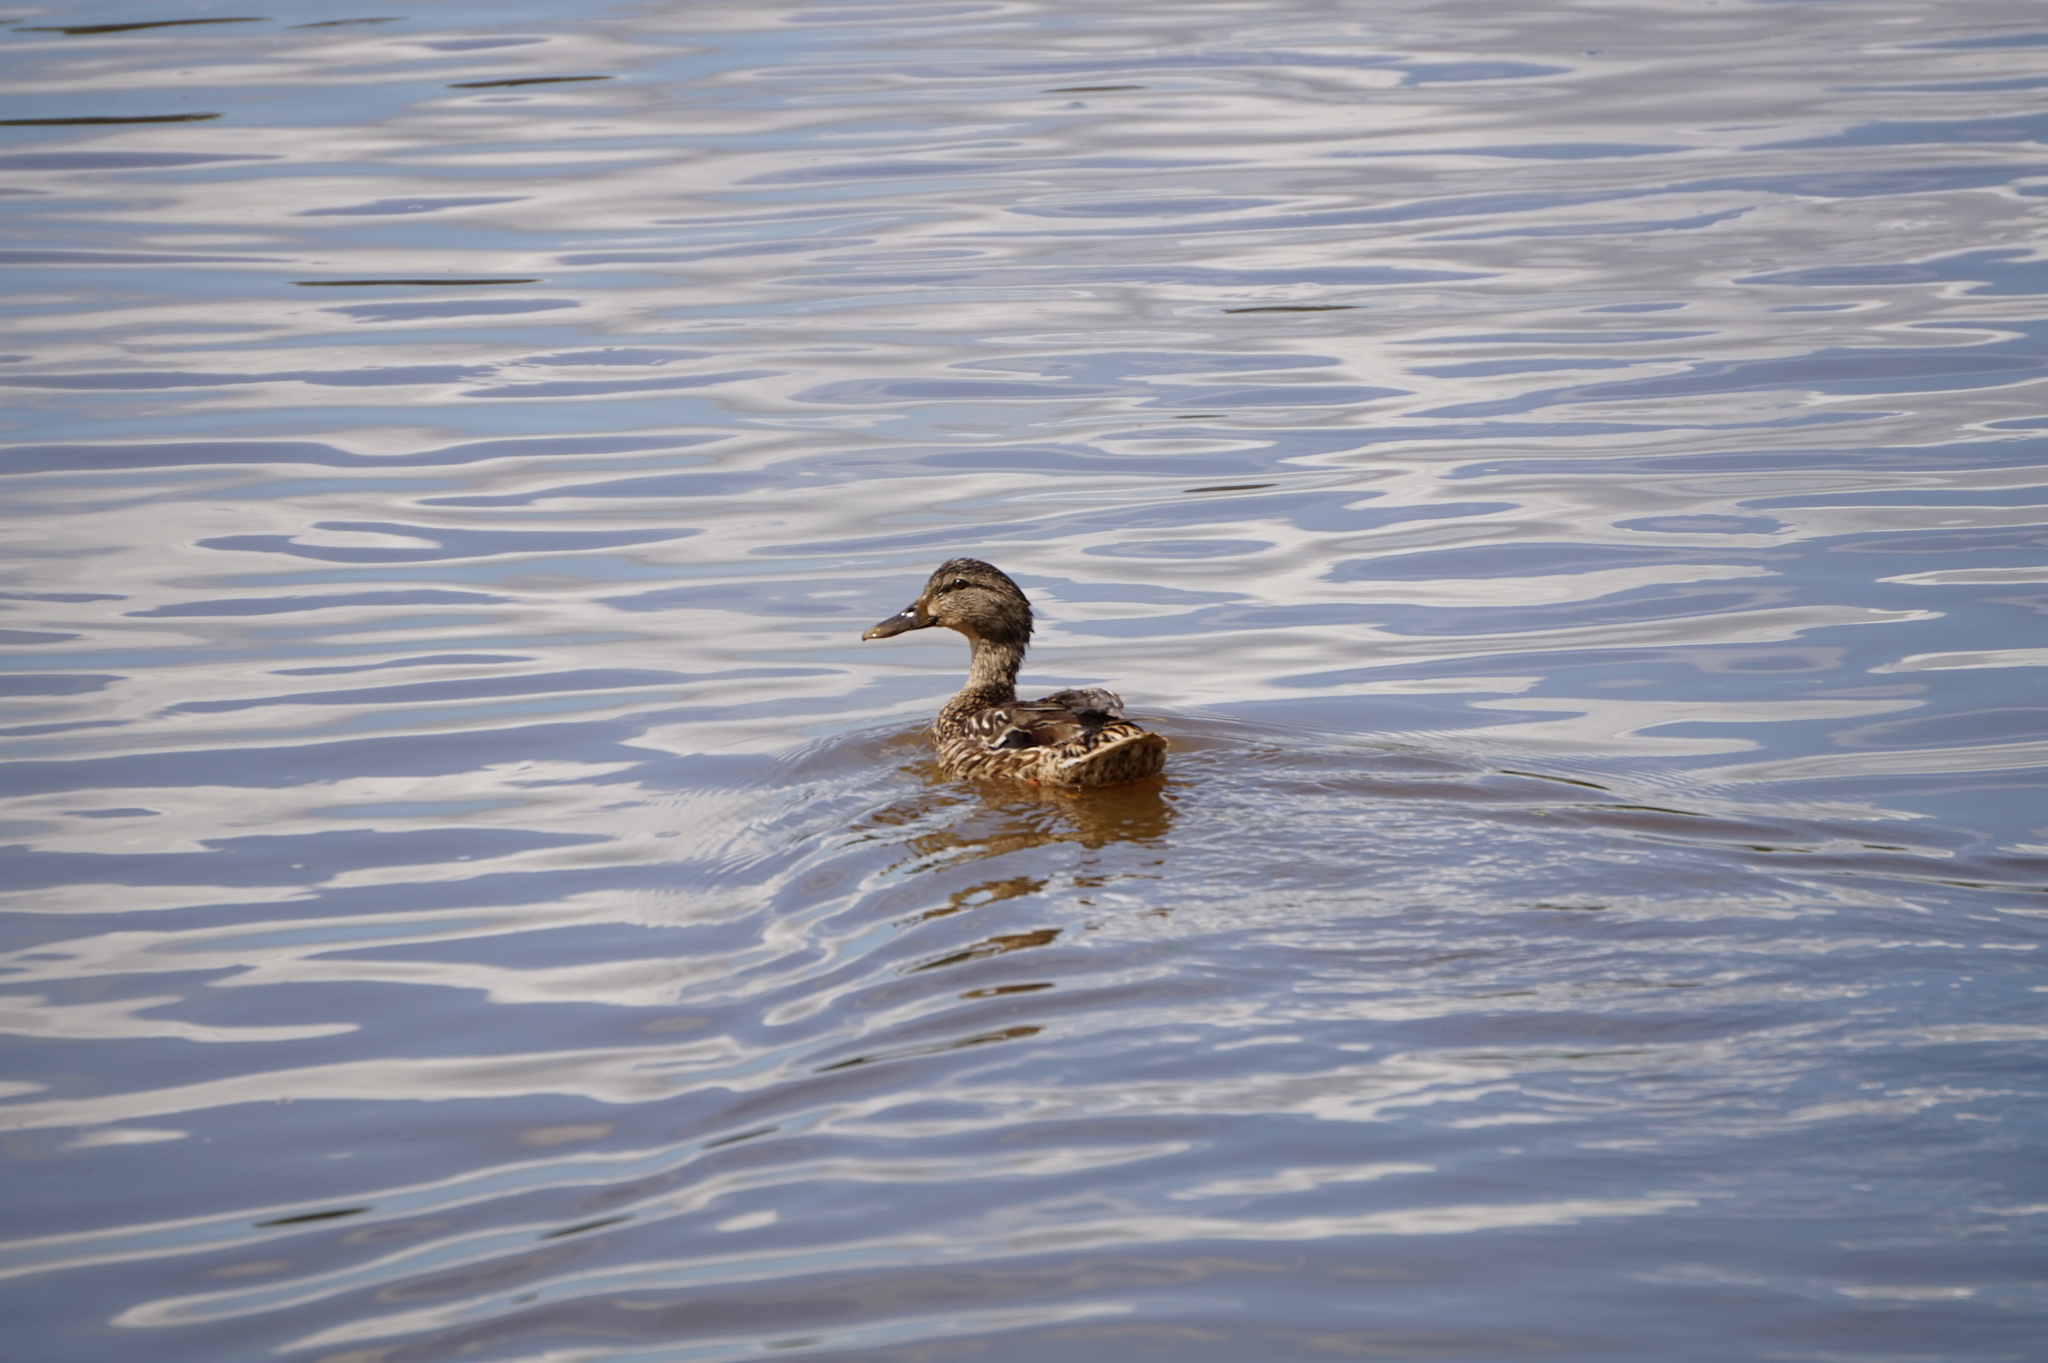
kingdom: Animalia
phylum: Chordata
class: Aves
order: Anseriformes
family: Anatidae
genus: Anas
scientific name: Anas platyrhynchos
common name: Mallard
